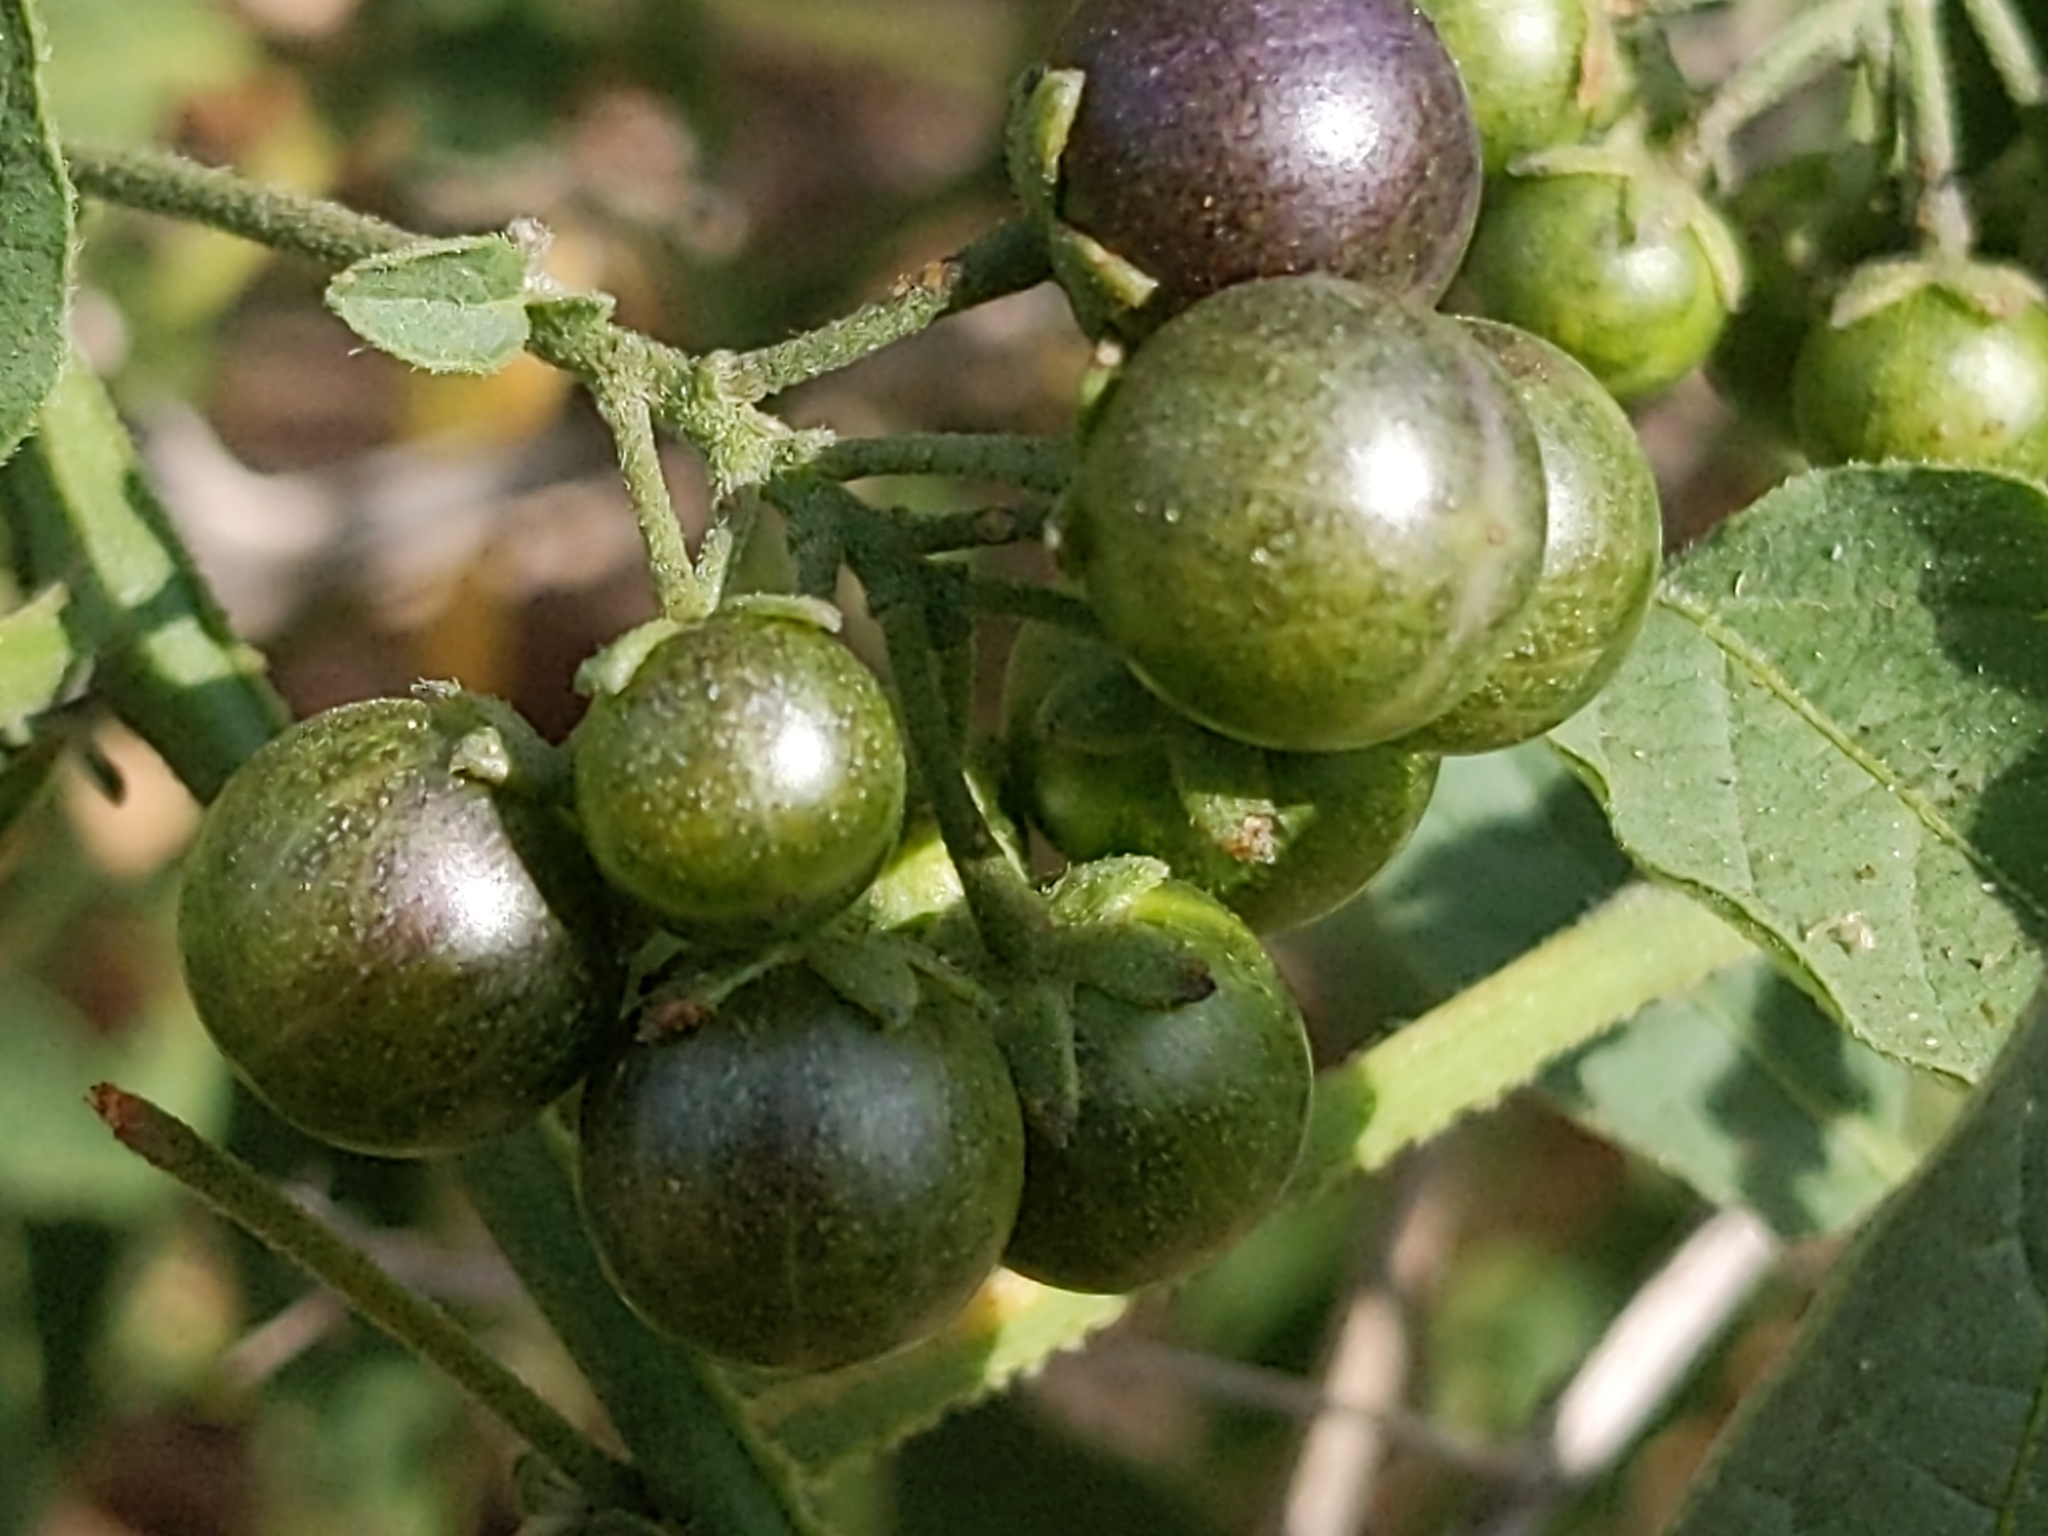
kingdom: Plantae
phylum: Tracheophyta
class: Magnoliopsida
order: Solanales
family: Solanaceae
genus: Solanum
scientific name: Solanum douglasii
